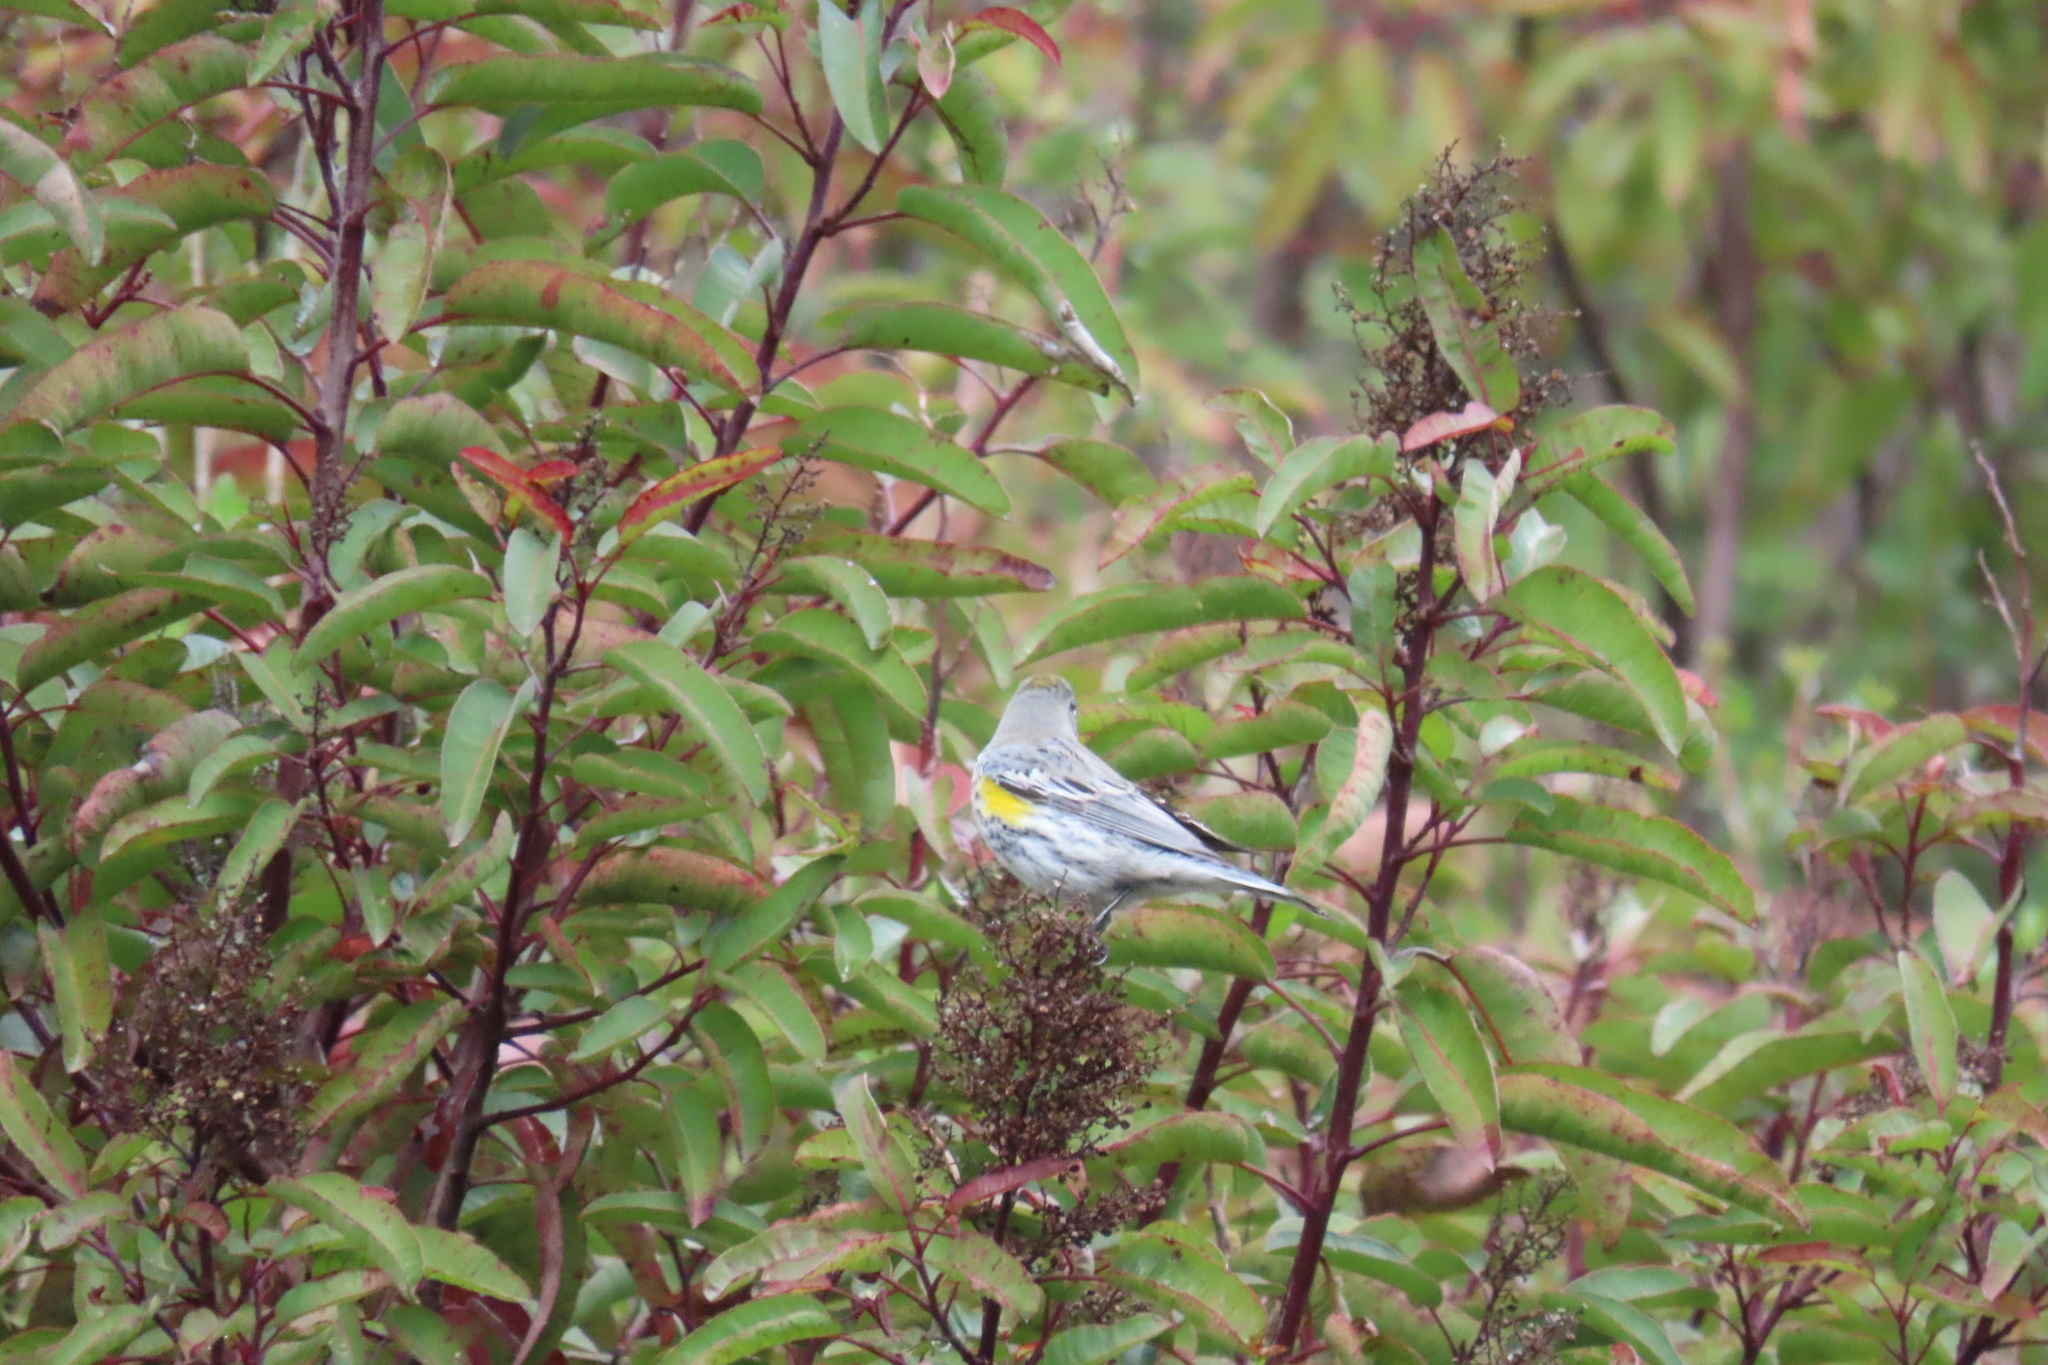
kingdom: Animalia
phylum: Chordata
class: Aves
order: Passeriformes
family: Parulidae
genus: Setophaga
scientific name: Setophaga coronata
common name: Myrtle warbler
